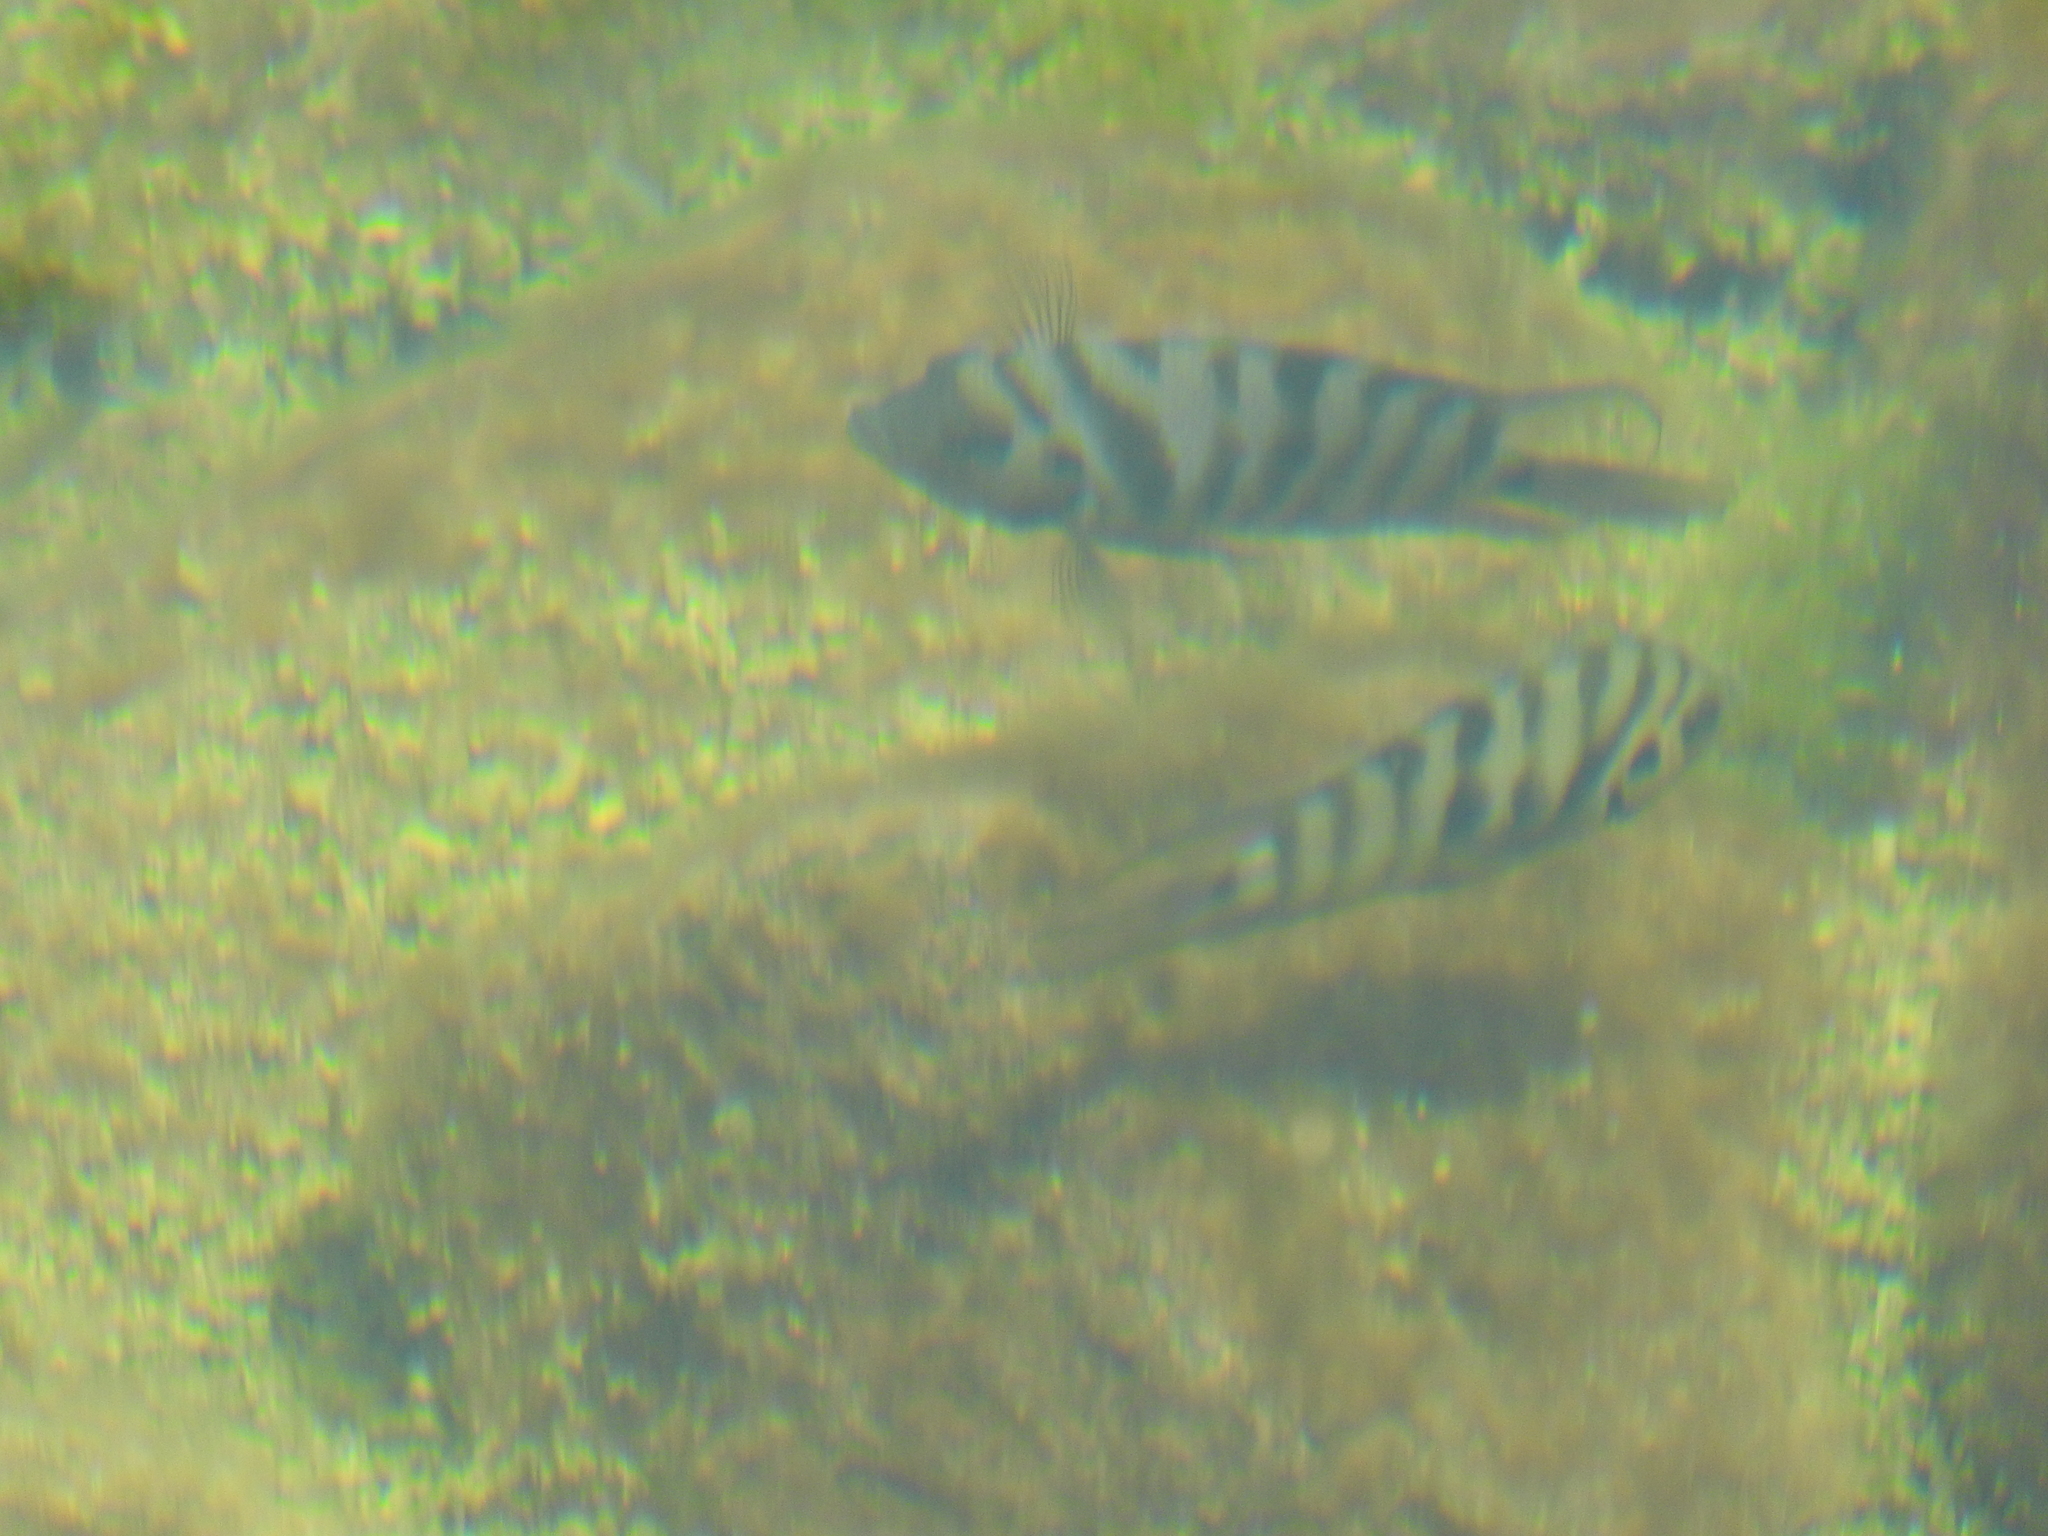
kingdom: Animalia
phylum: Chordata
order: Perciformes
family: Cichlidae
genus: Amatitlania
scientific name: Amatitlania nigrofasciata
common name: Convict cichlid
